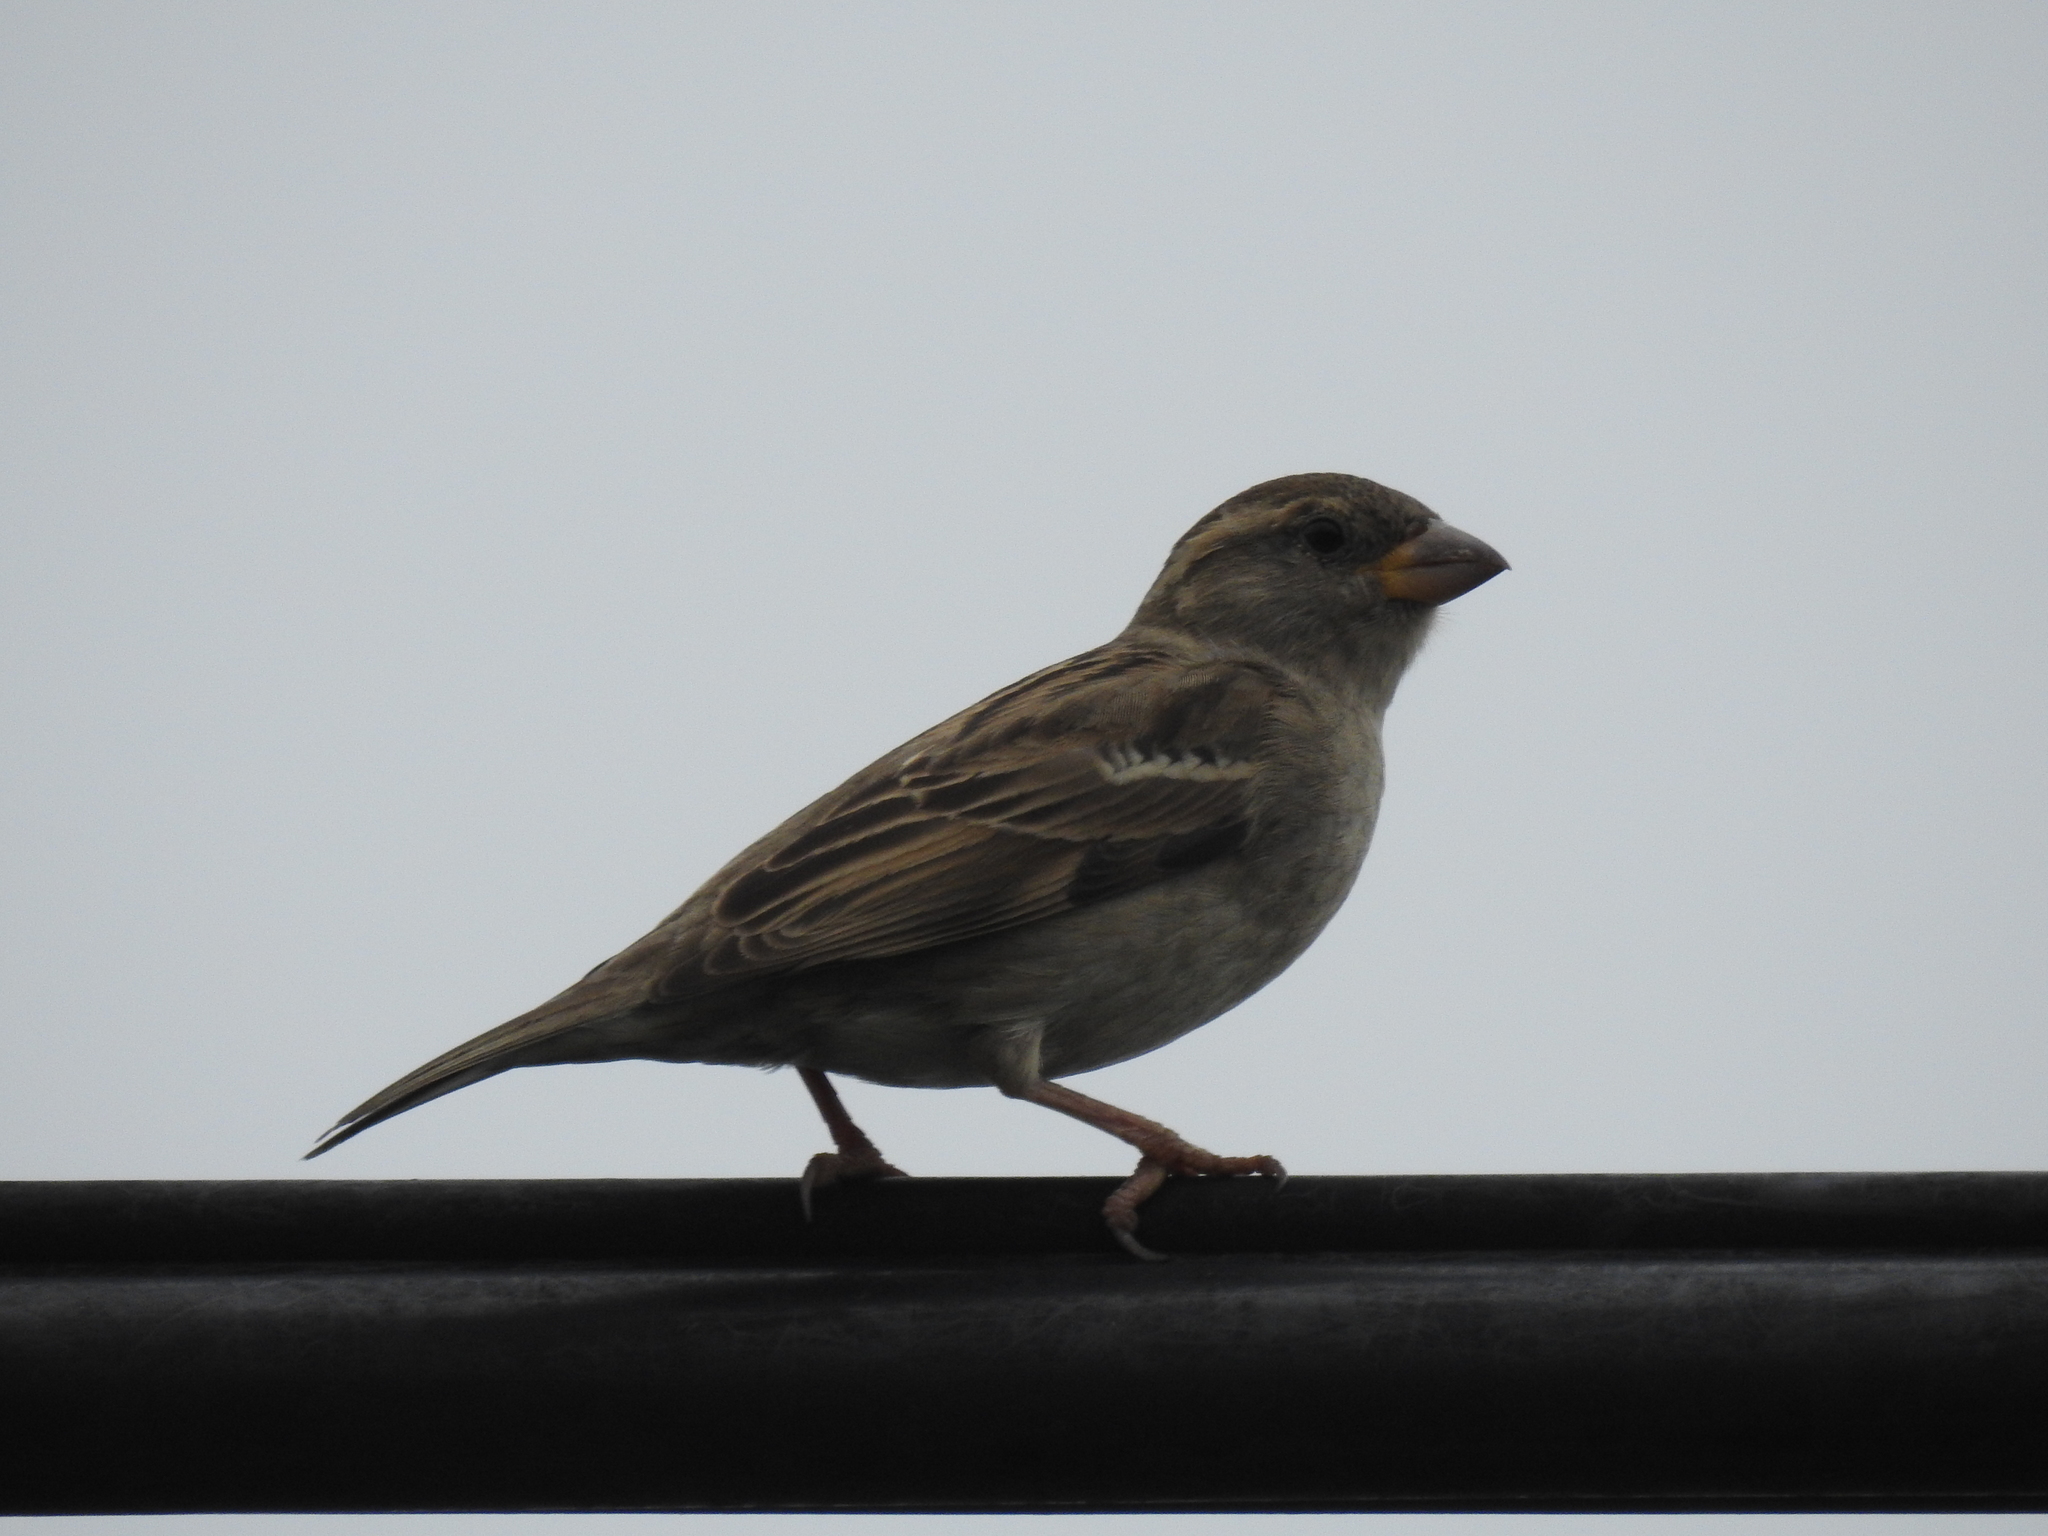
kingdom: Animalia
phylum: Chordata
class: Aves
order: Passeriformes
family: Passeridae
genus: Passer
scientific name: Passer domesticus
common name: House sparrow
